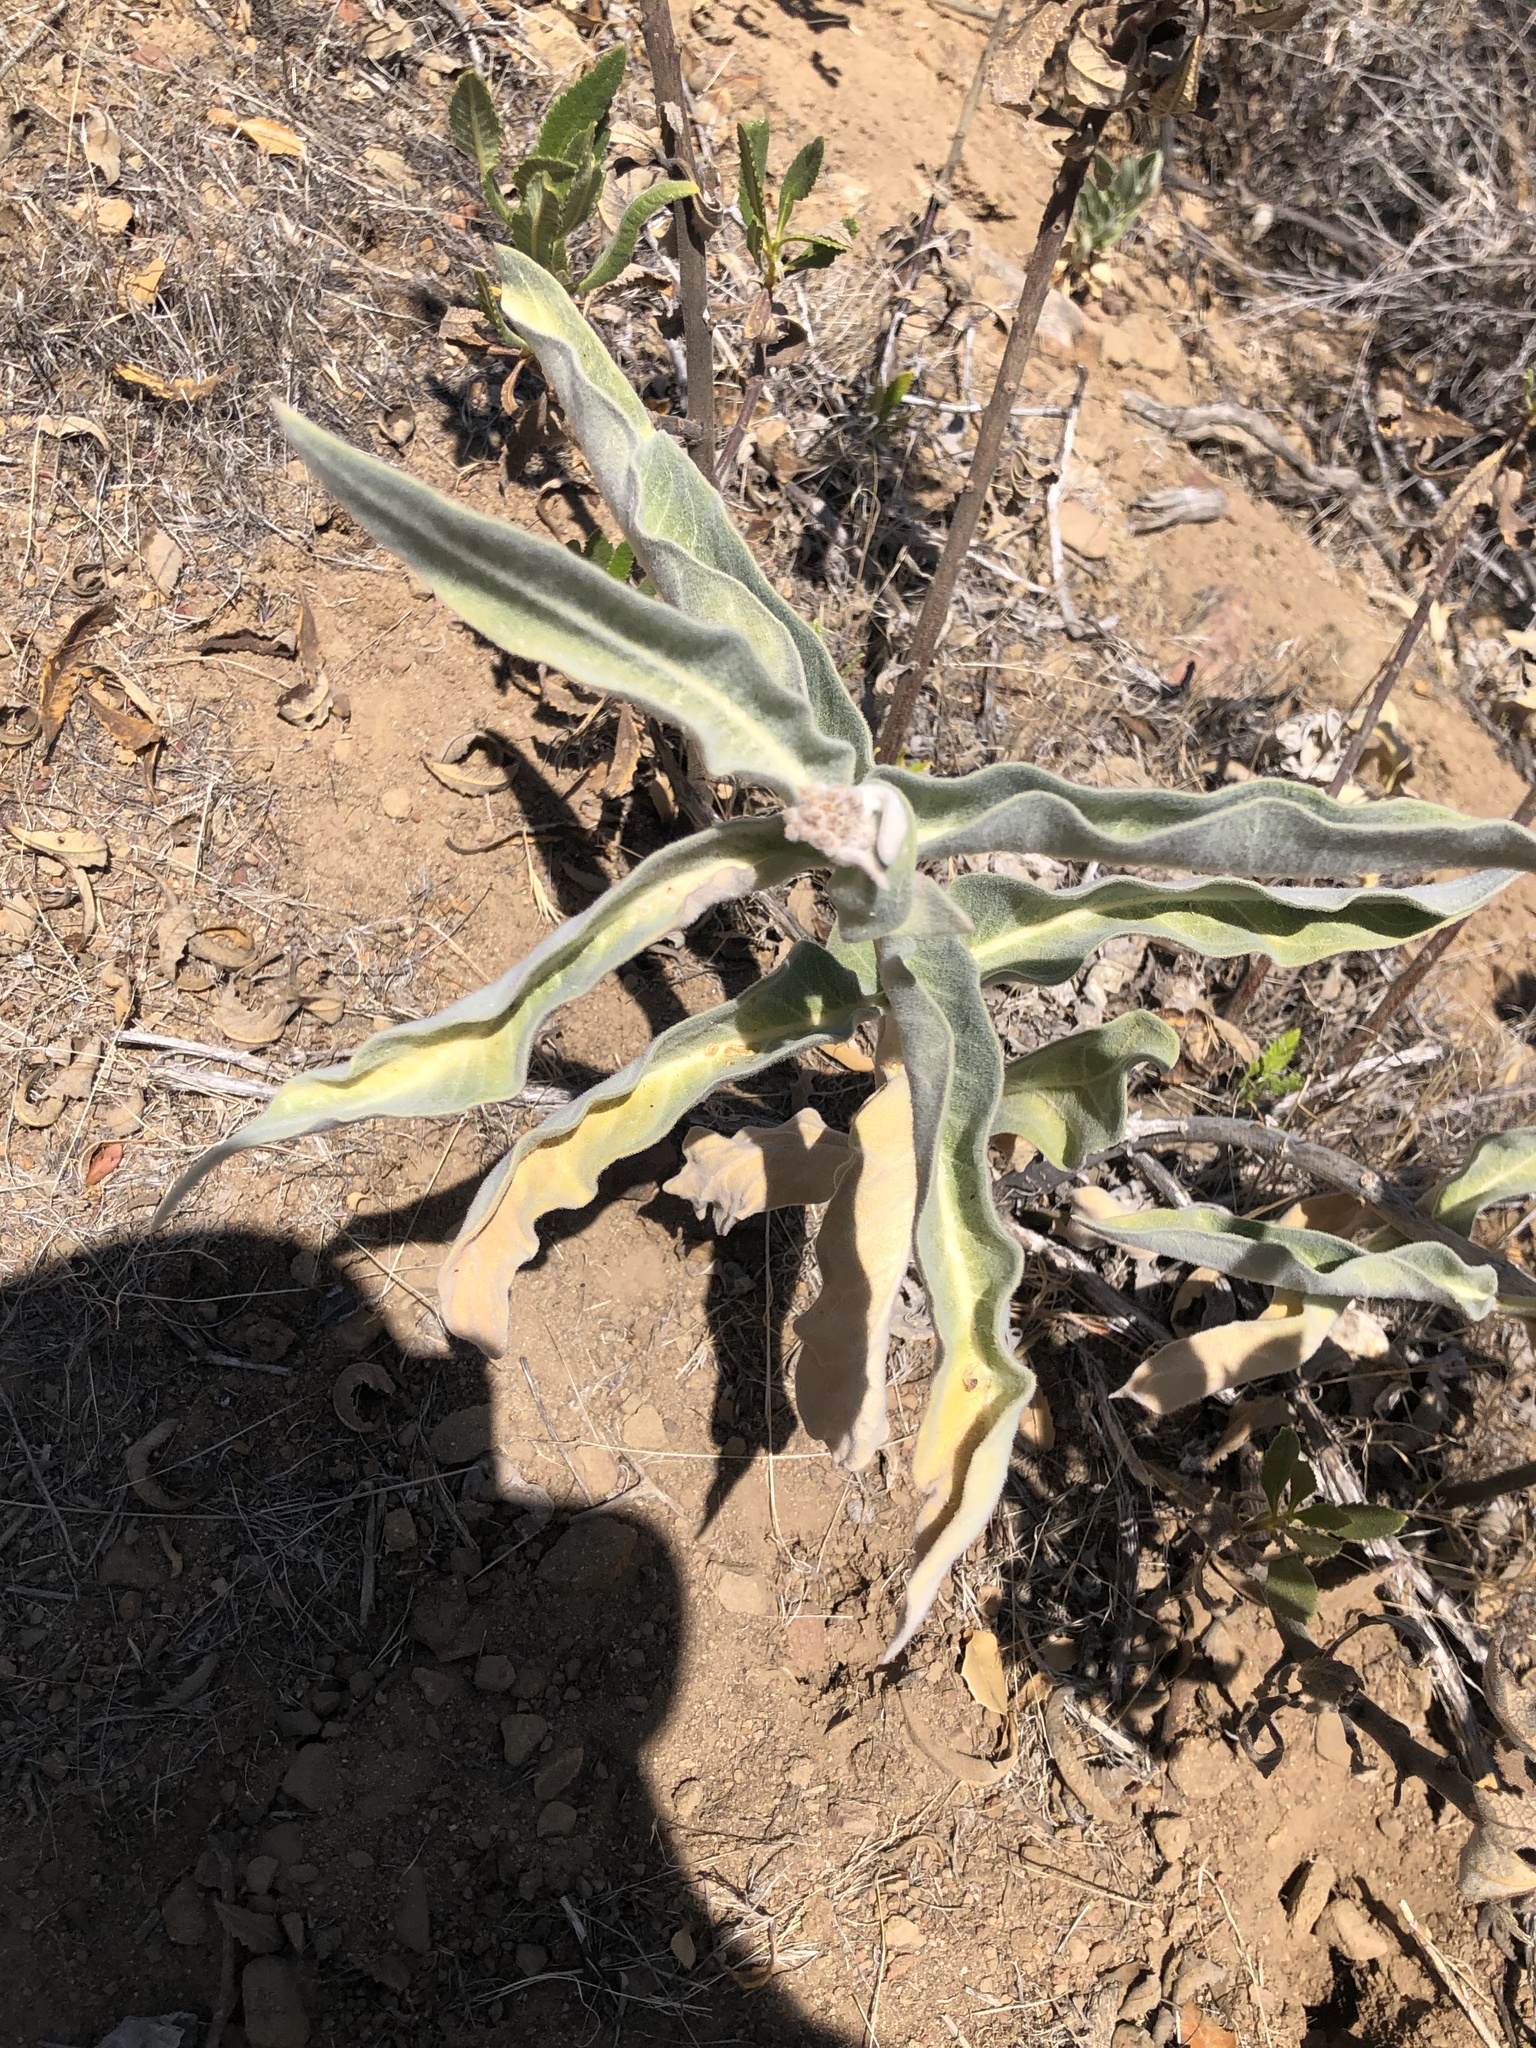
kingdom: Plantae
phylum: Tracheophyta
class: Magnoliopsida
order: Gentianales
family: Apocynaceae
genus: Asclepias
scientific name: Asclepias eriocarpa
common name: Indian milkweed
